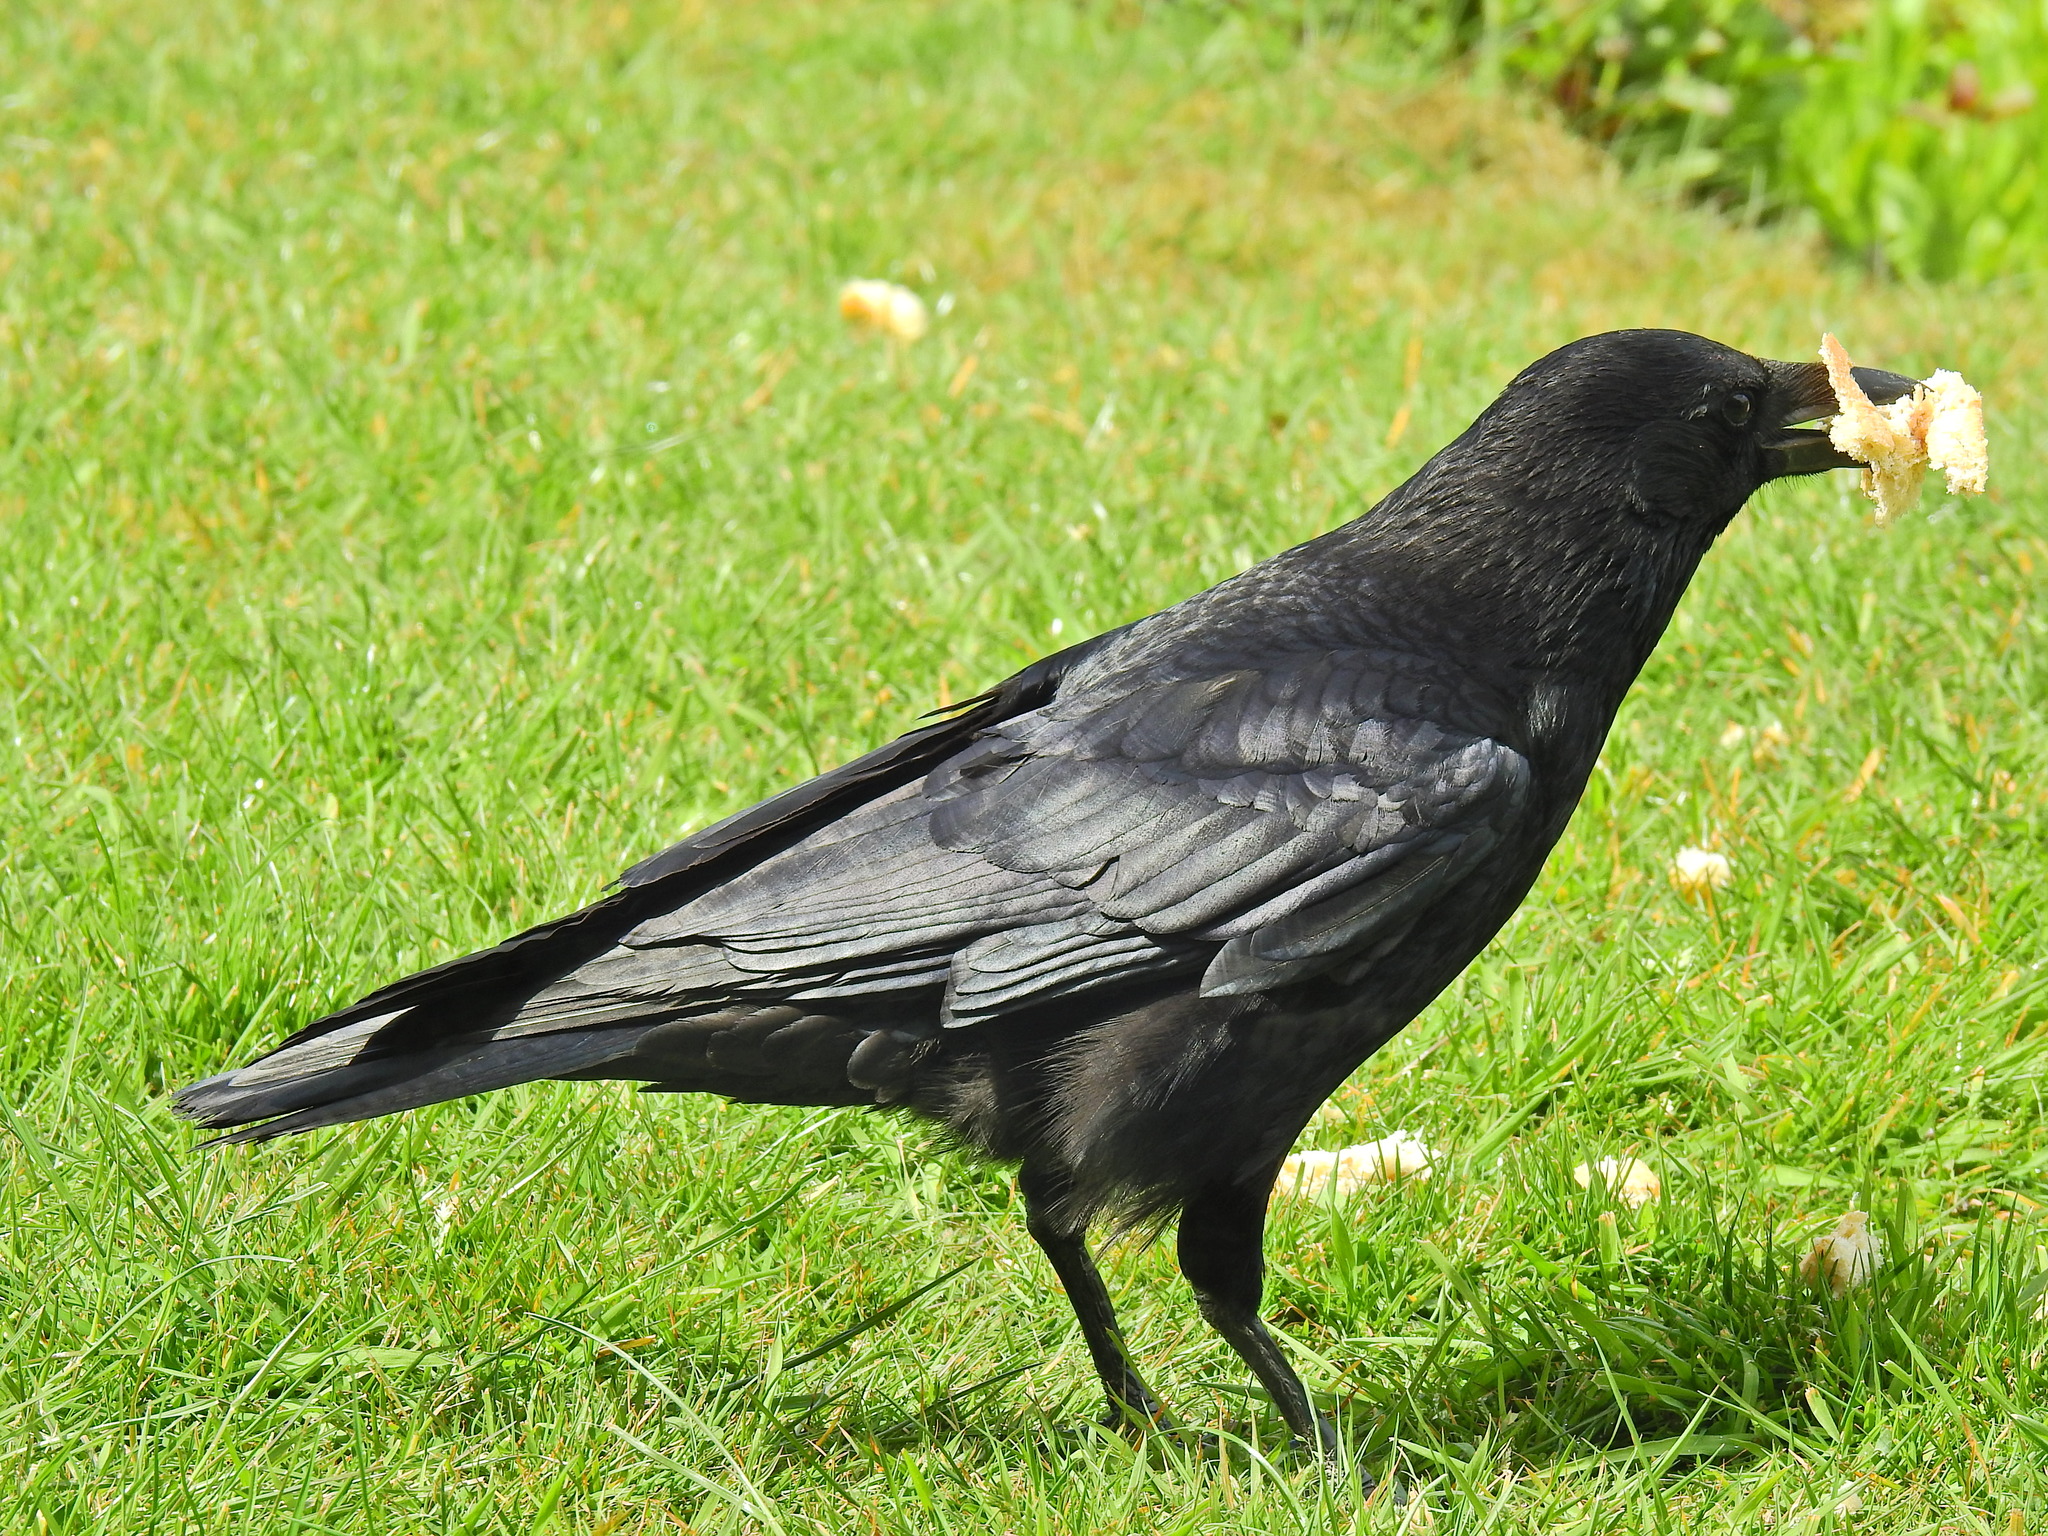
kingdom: Animalia
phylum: Chordata
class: Aves
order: Passeriformes
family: Corvidae
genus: Corvus
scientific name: Corvus corone
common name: Carrion crow
